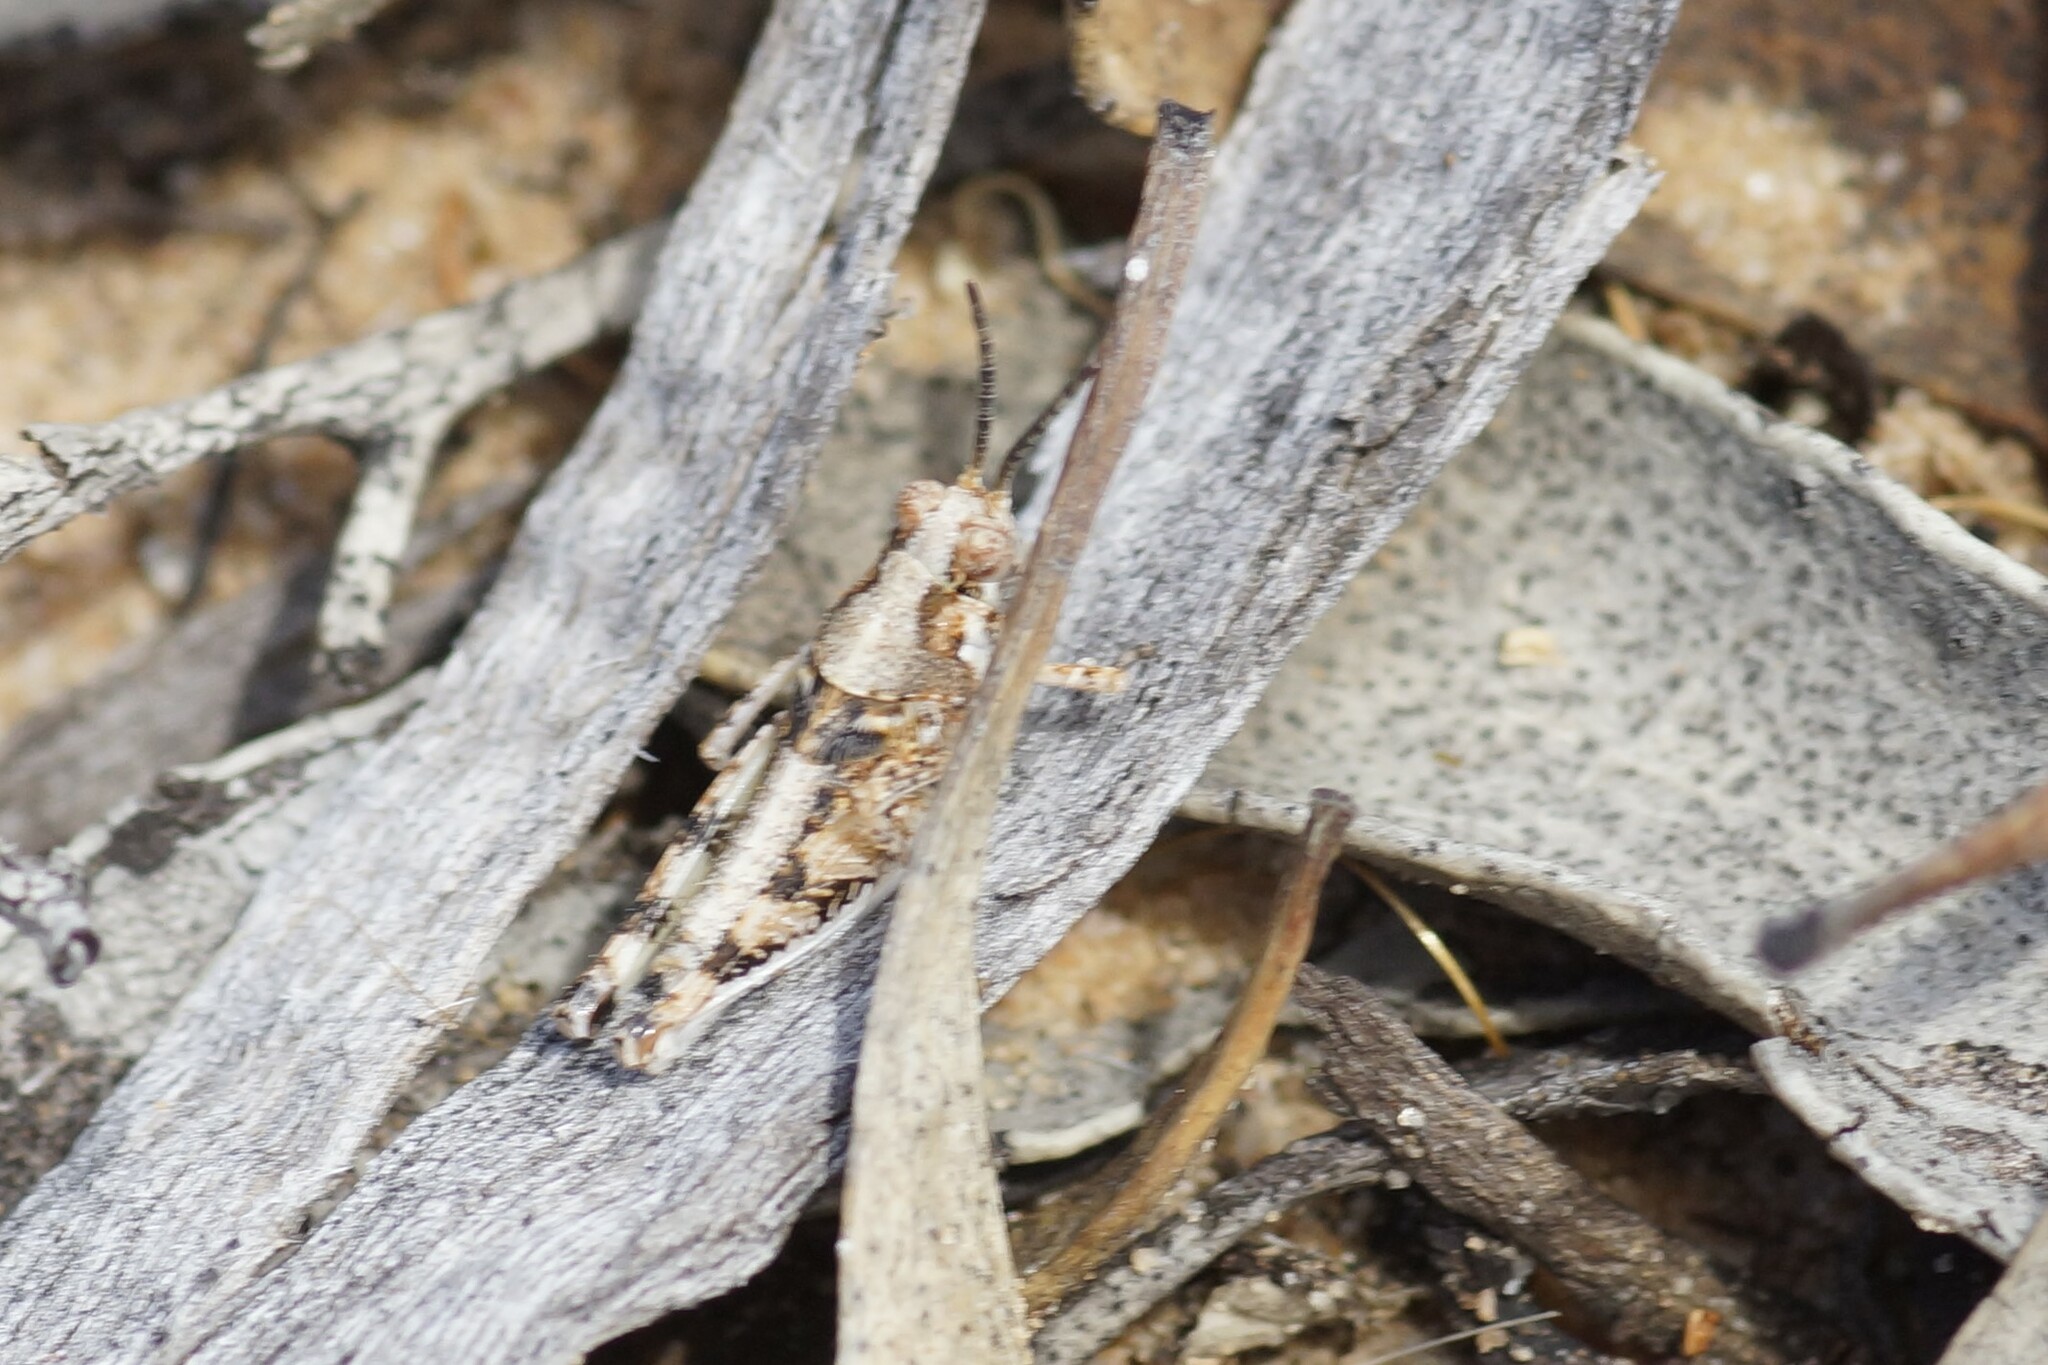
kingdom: Animalia
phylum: Arthropoda
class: Insecta
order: Orthoptera
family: Acrididae
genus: Urnisa
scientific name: Urnisa guttulosa
